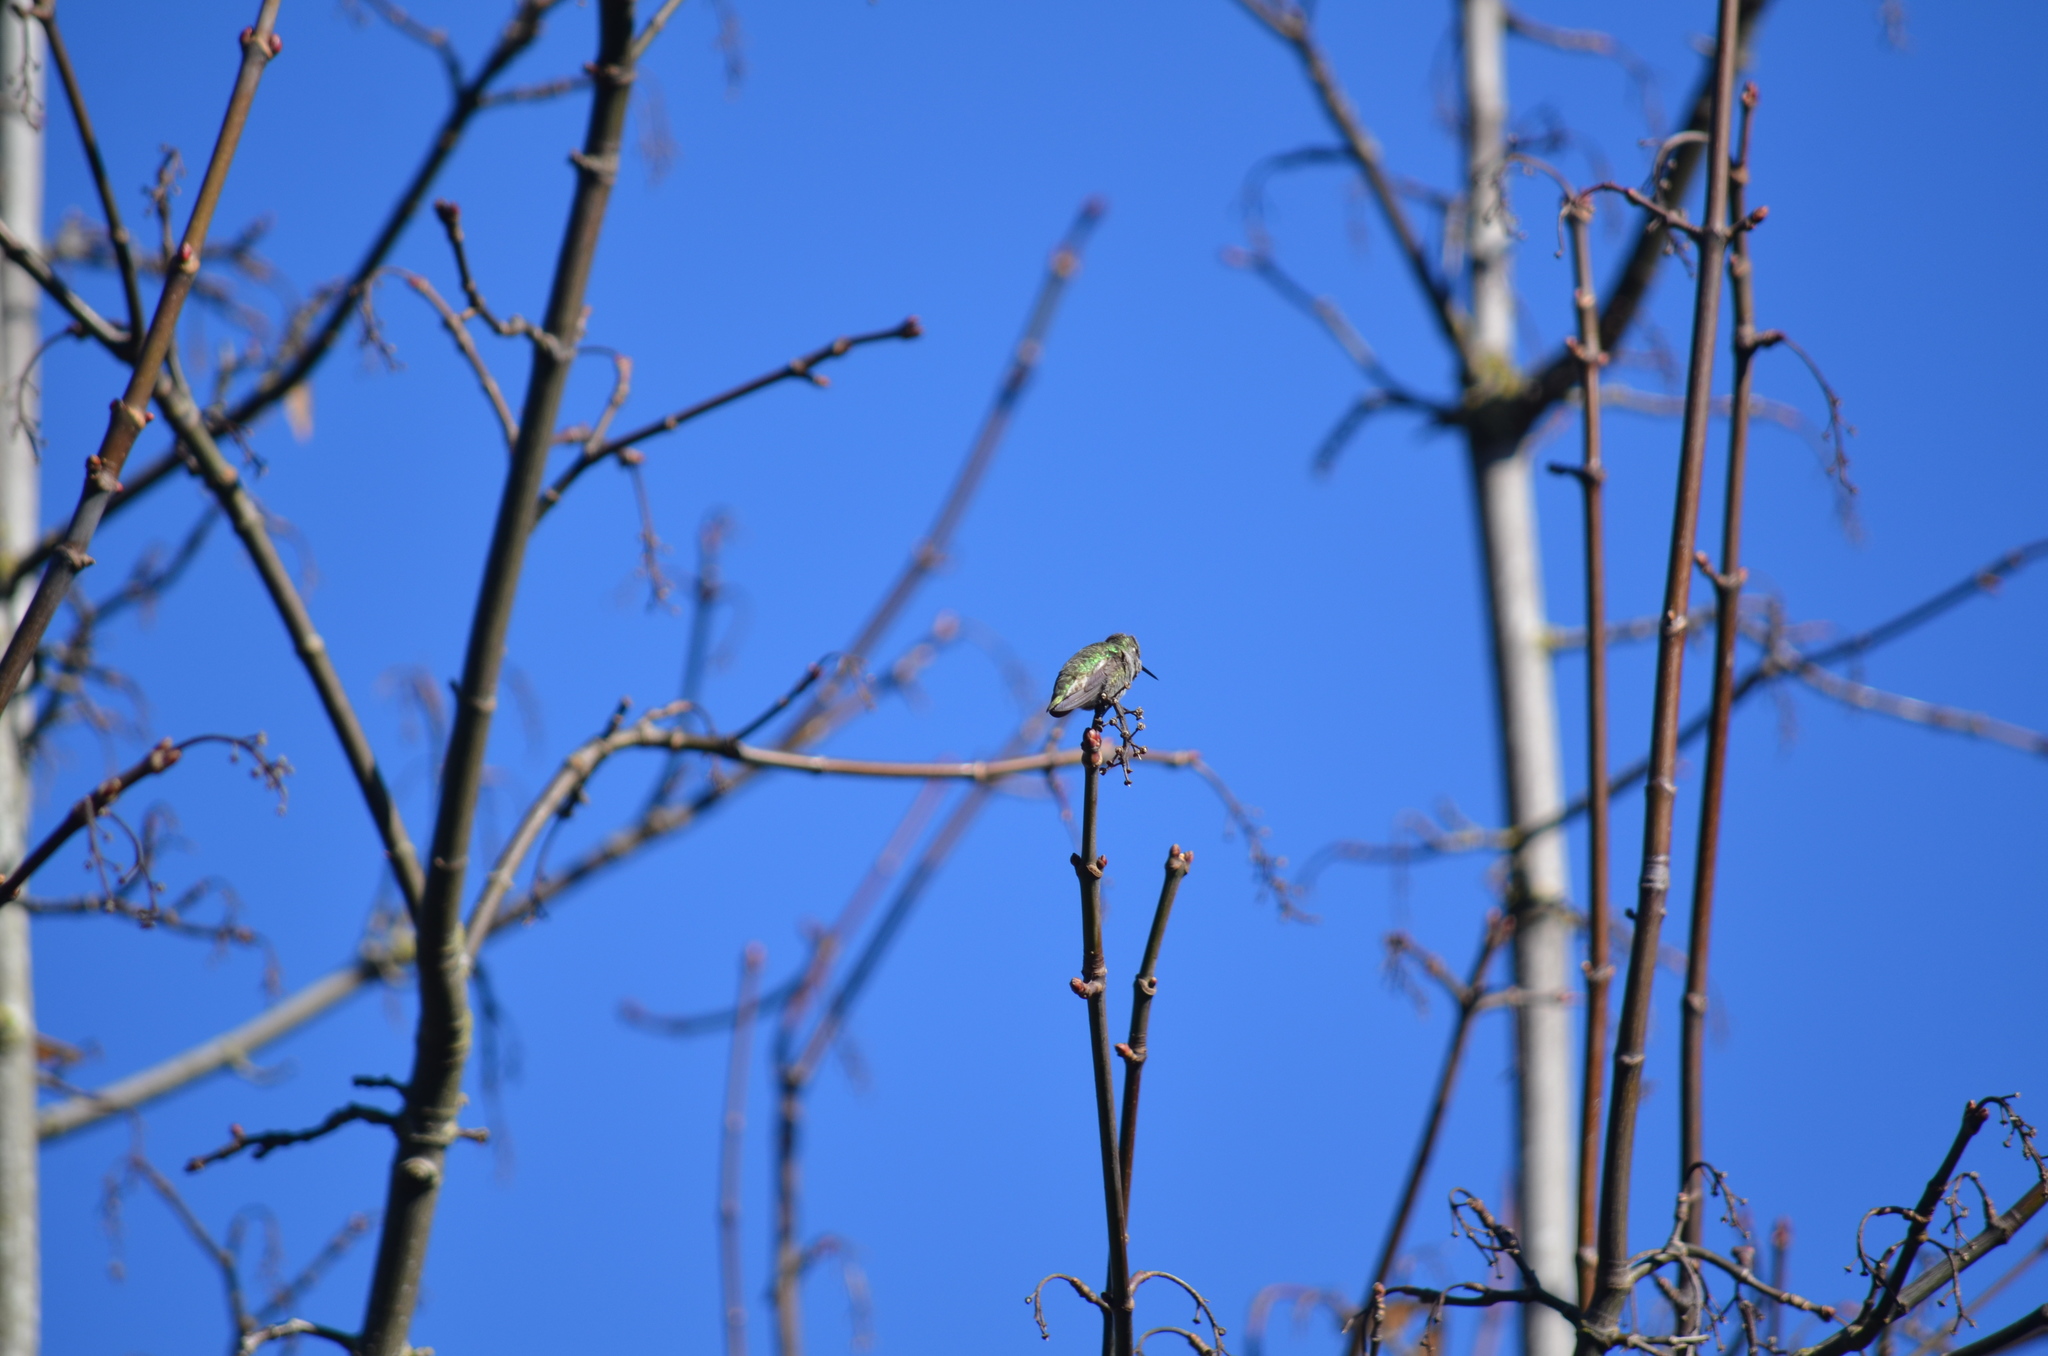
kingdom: Animalia
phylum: Chordata
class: Aves
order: Apodiformes
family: Trochilidae
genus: Calypte
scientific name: Calypte anna
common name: Anna's hummingbird
